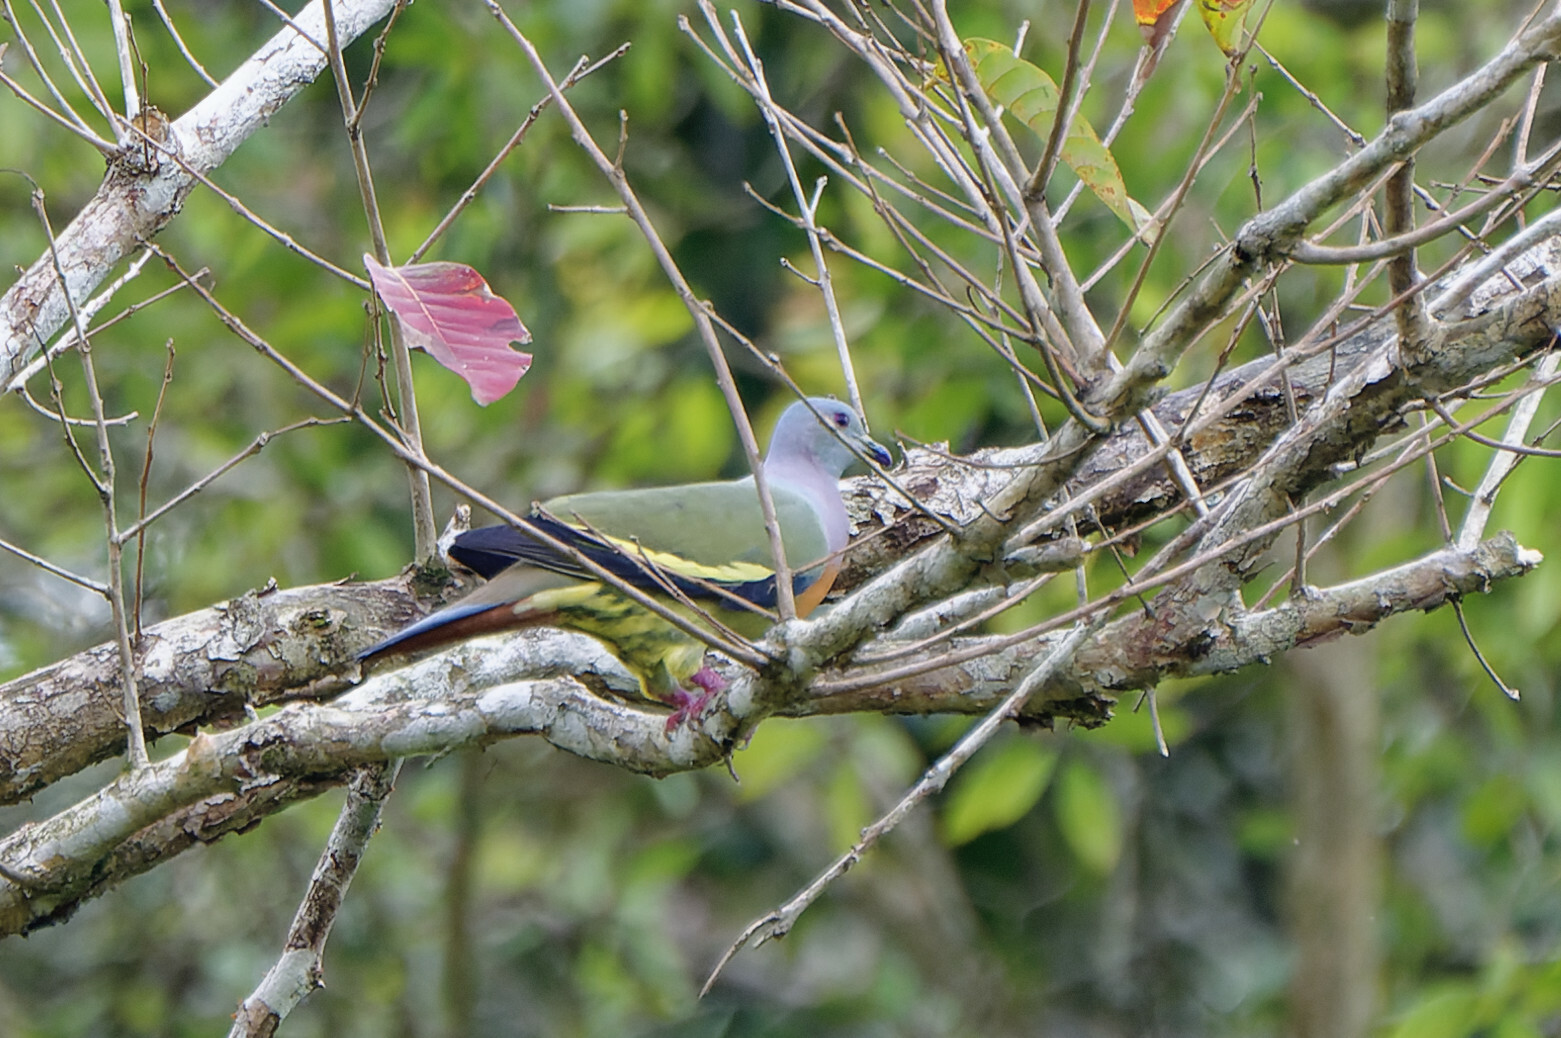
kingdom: Animalia
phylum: Chordata
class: Aves
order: Columbiformes
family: Columbidae
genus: Treron
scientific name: Treron vernans
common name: Pink-necked green pigeon
